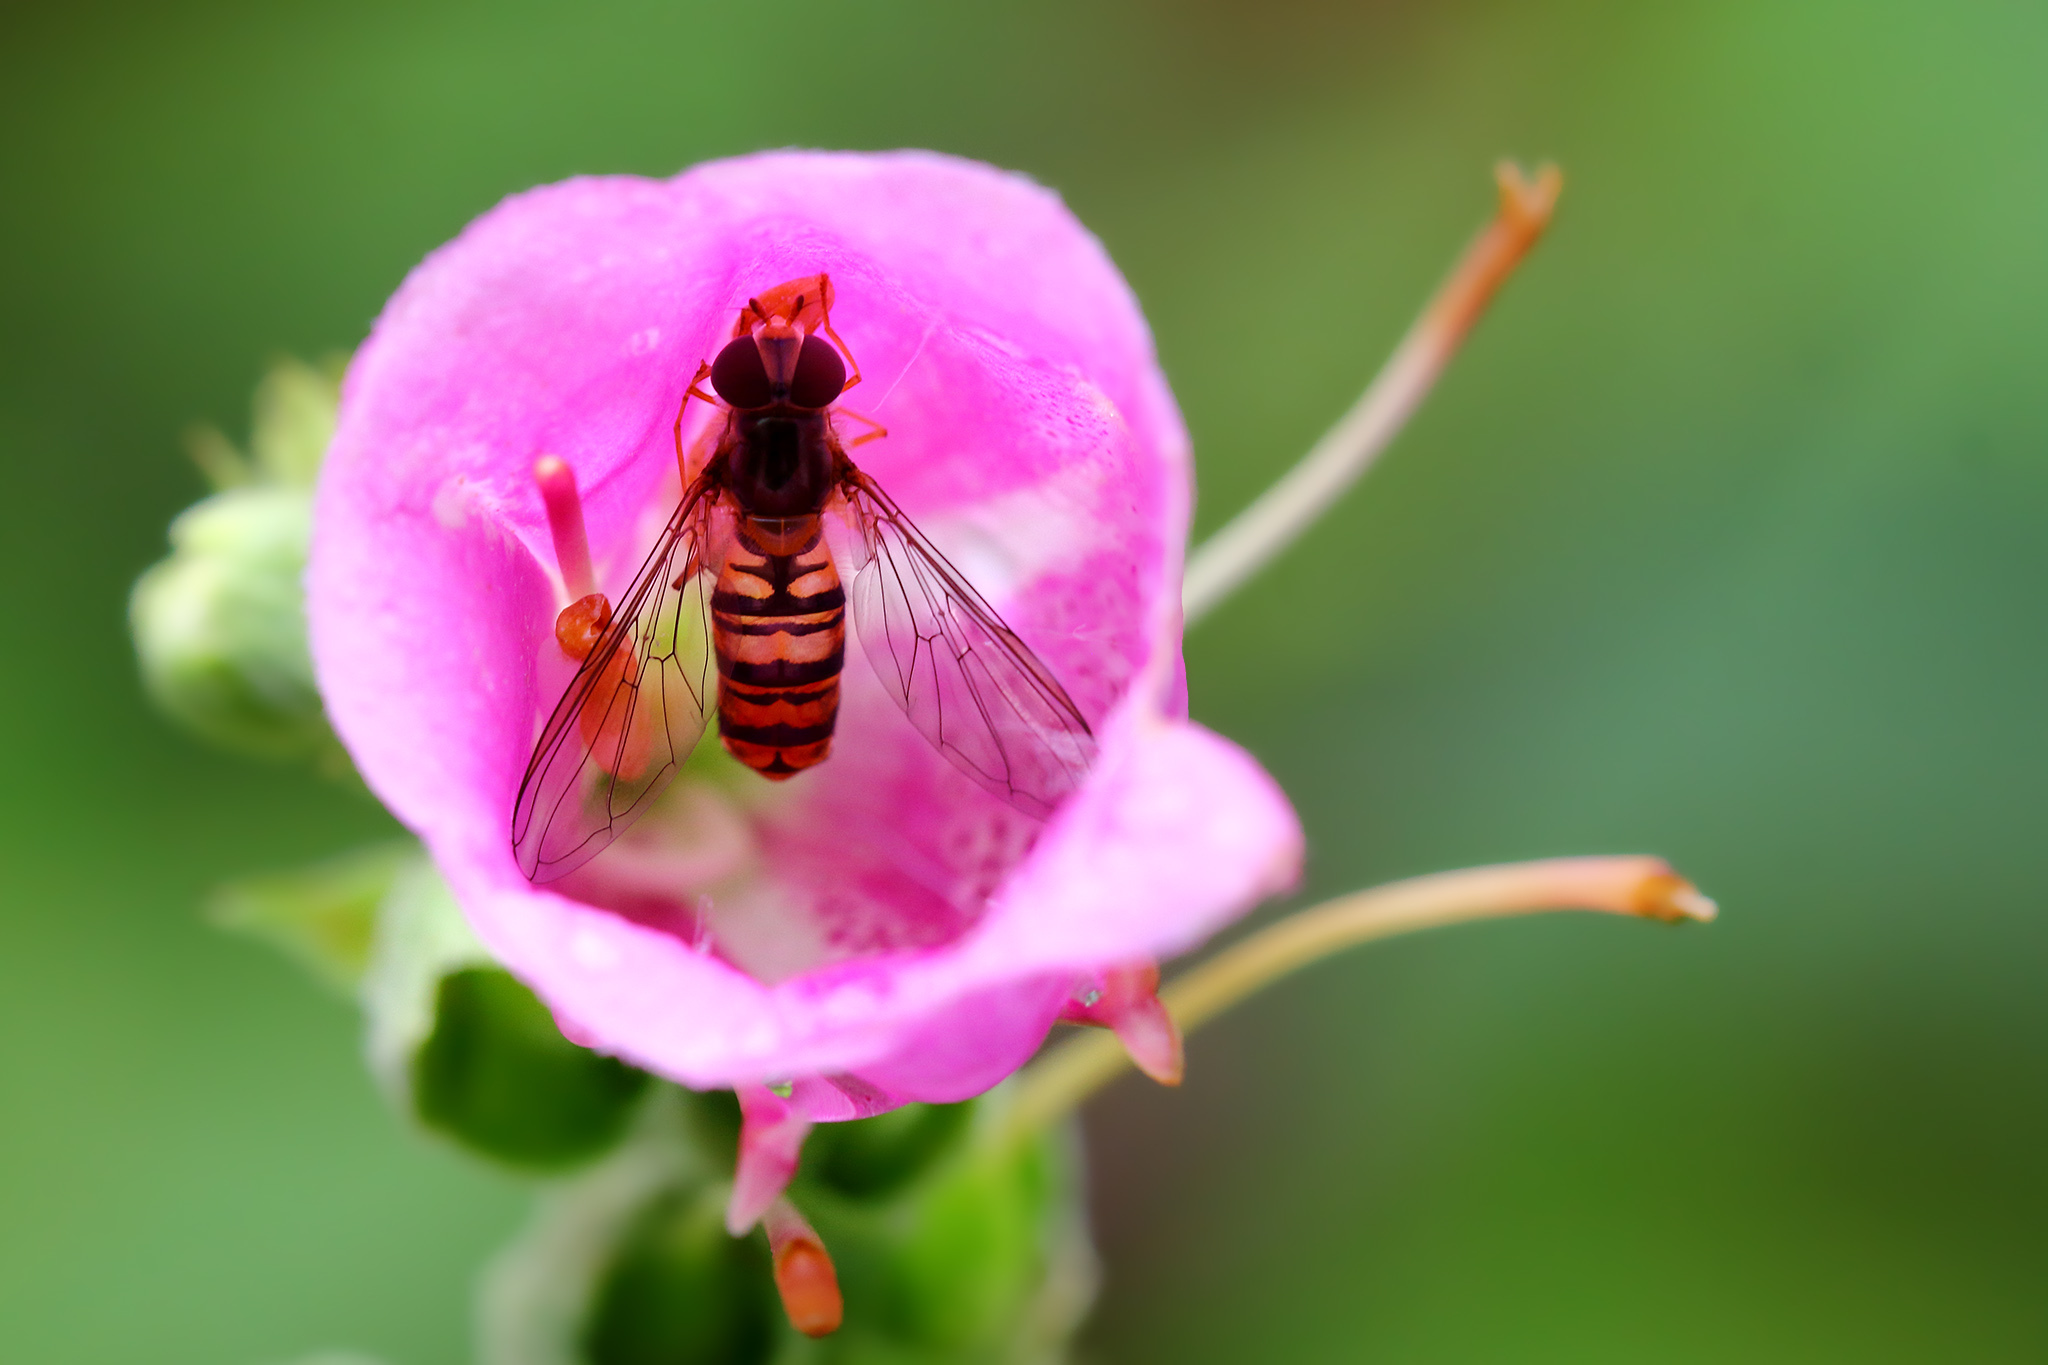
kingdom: Animalia
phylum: Arthropoda
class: Insecta
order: Diptera
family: Syrphidae
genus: Episyrphus
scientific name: Episyrphus balteatus
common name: Marmalade hoverfly
